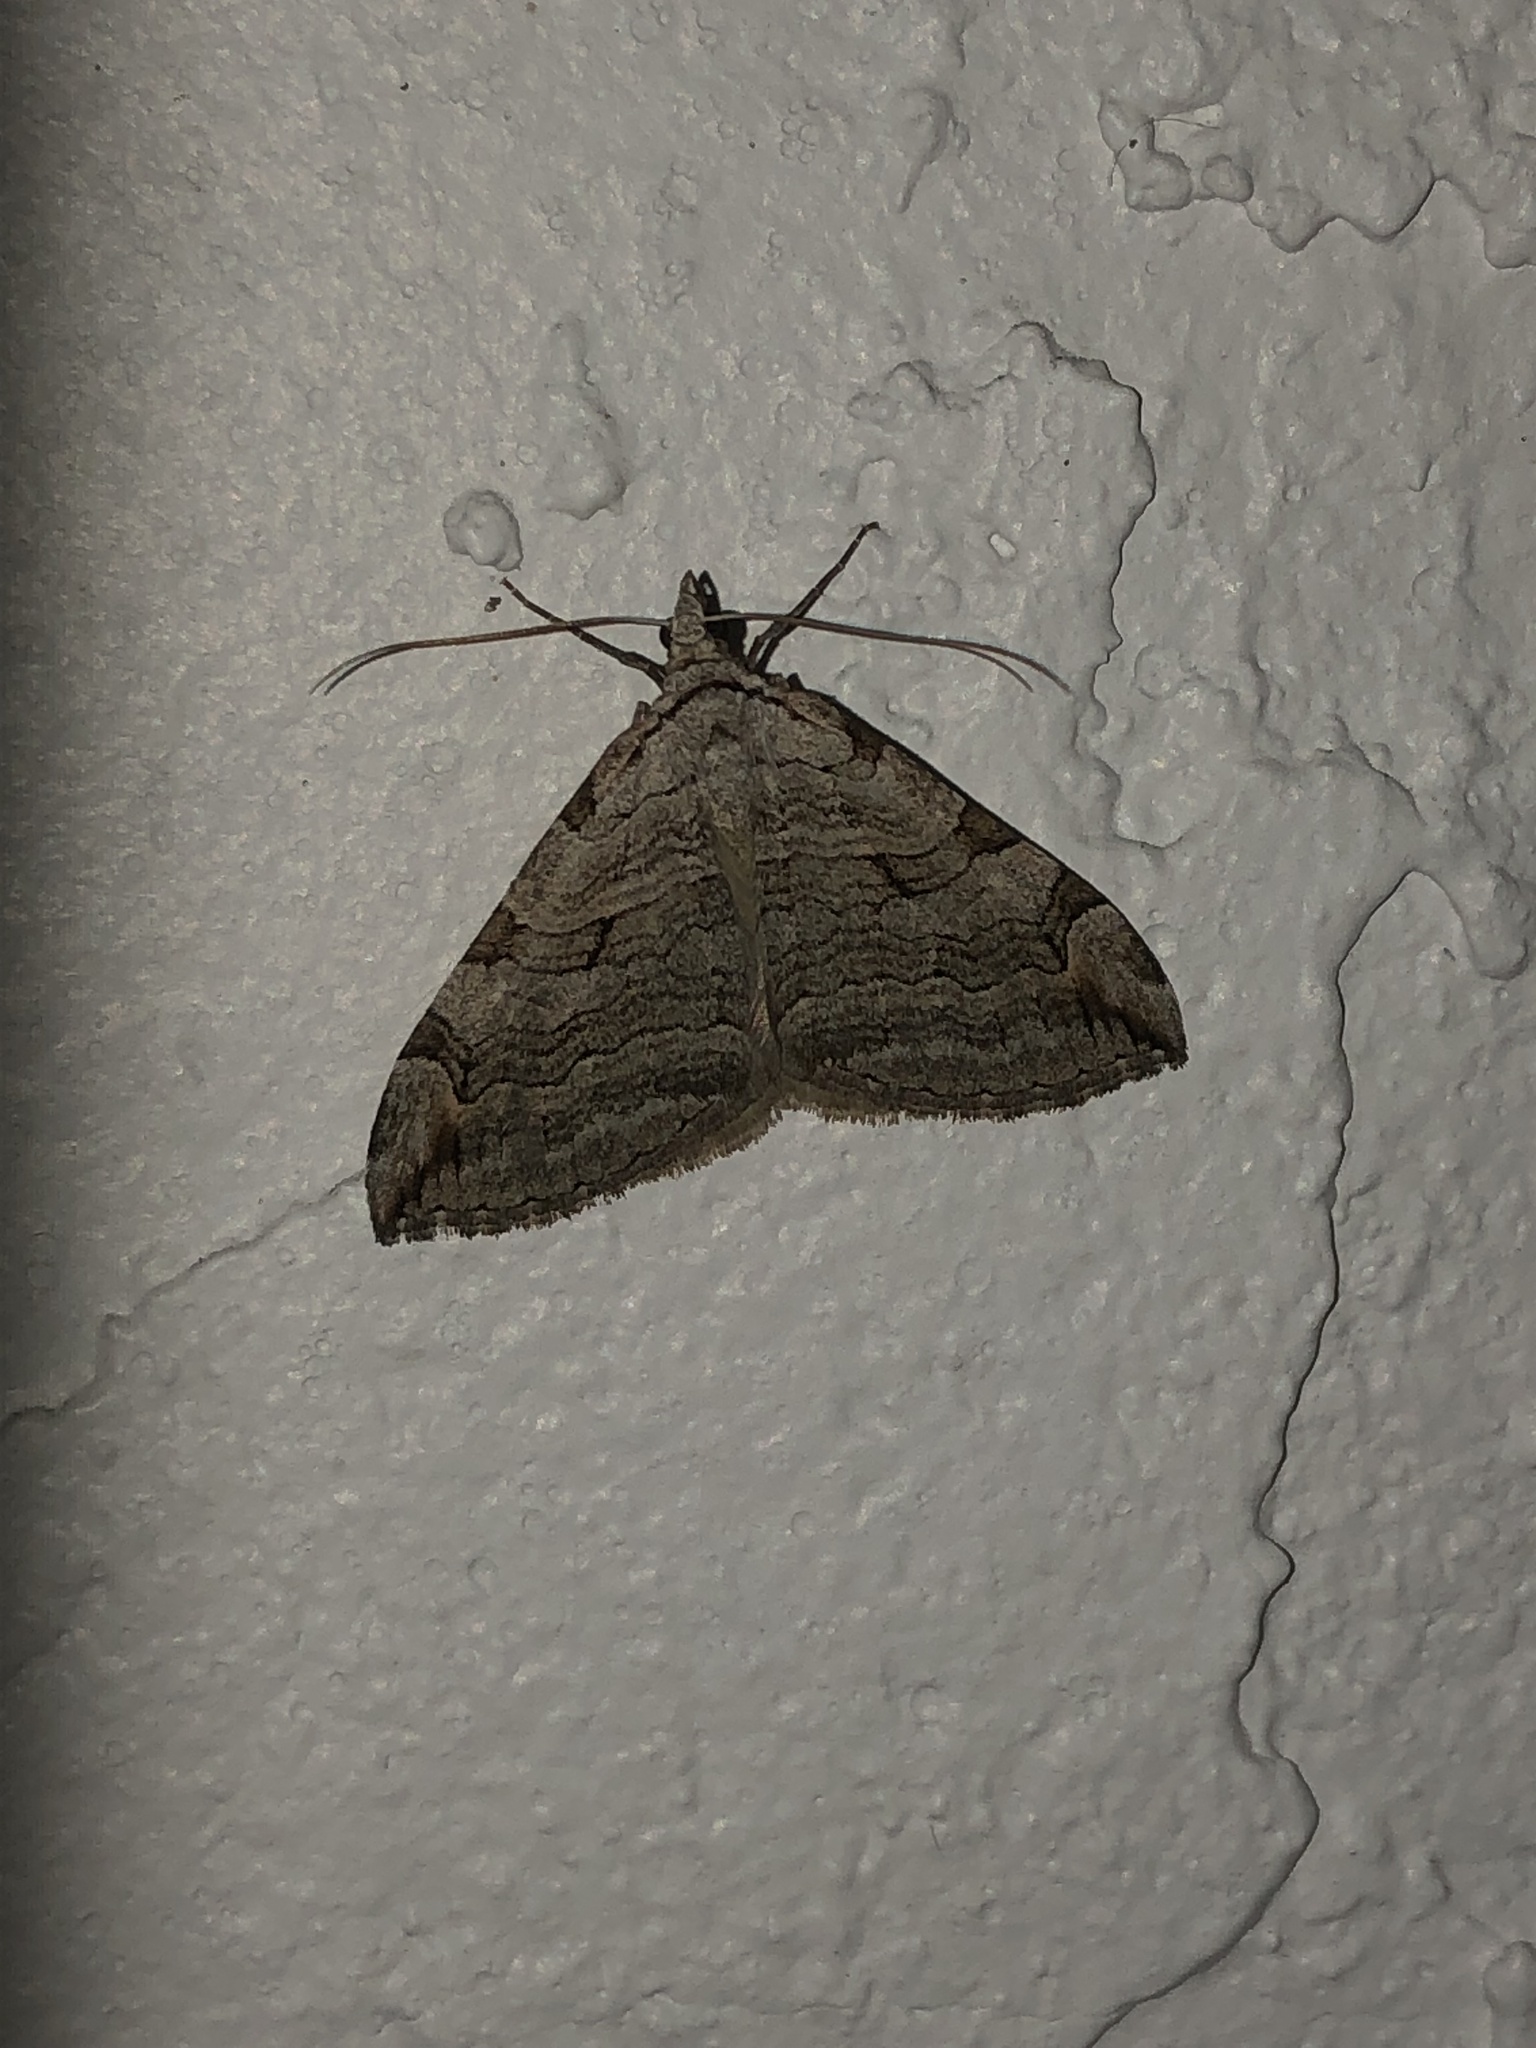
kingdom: Animalia
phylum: Arthropoda
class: Insecta
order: Lepidoptera
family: Geometridae
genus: Aplocera
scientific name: Aplocera plagiata
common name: Treble-bar
